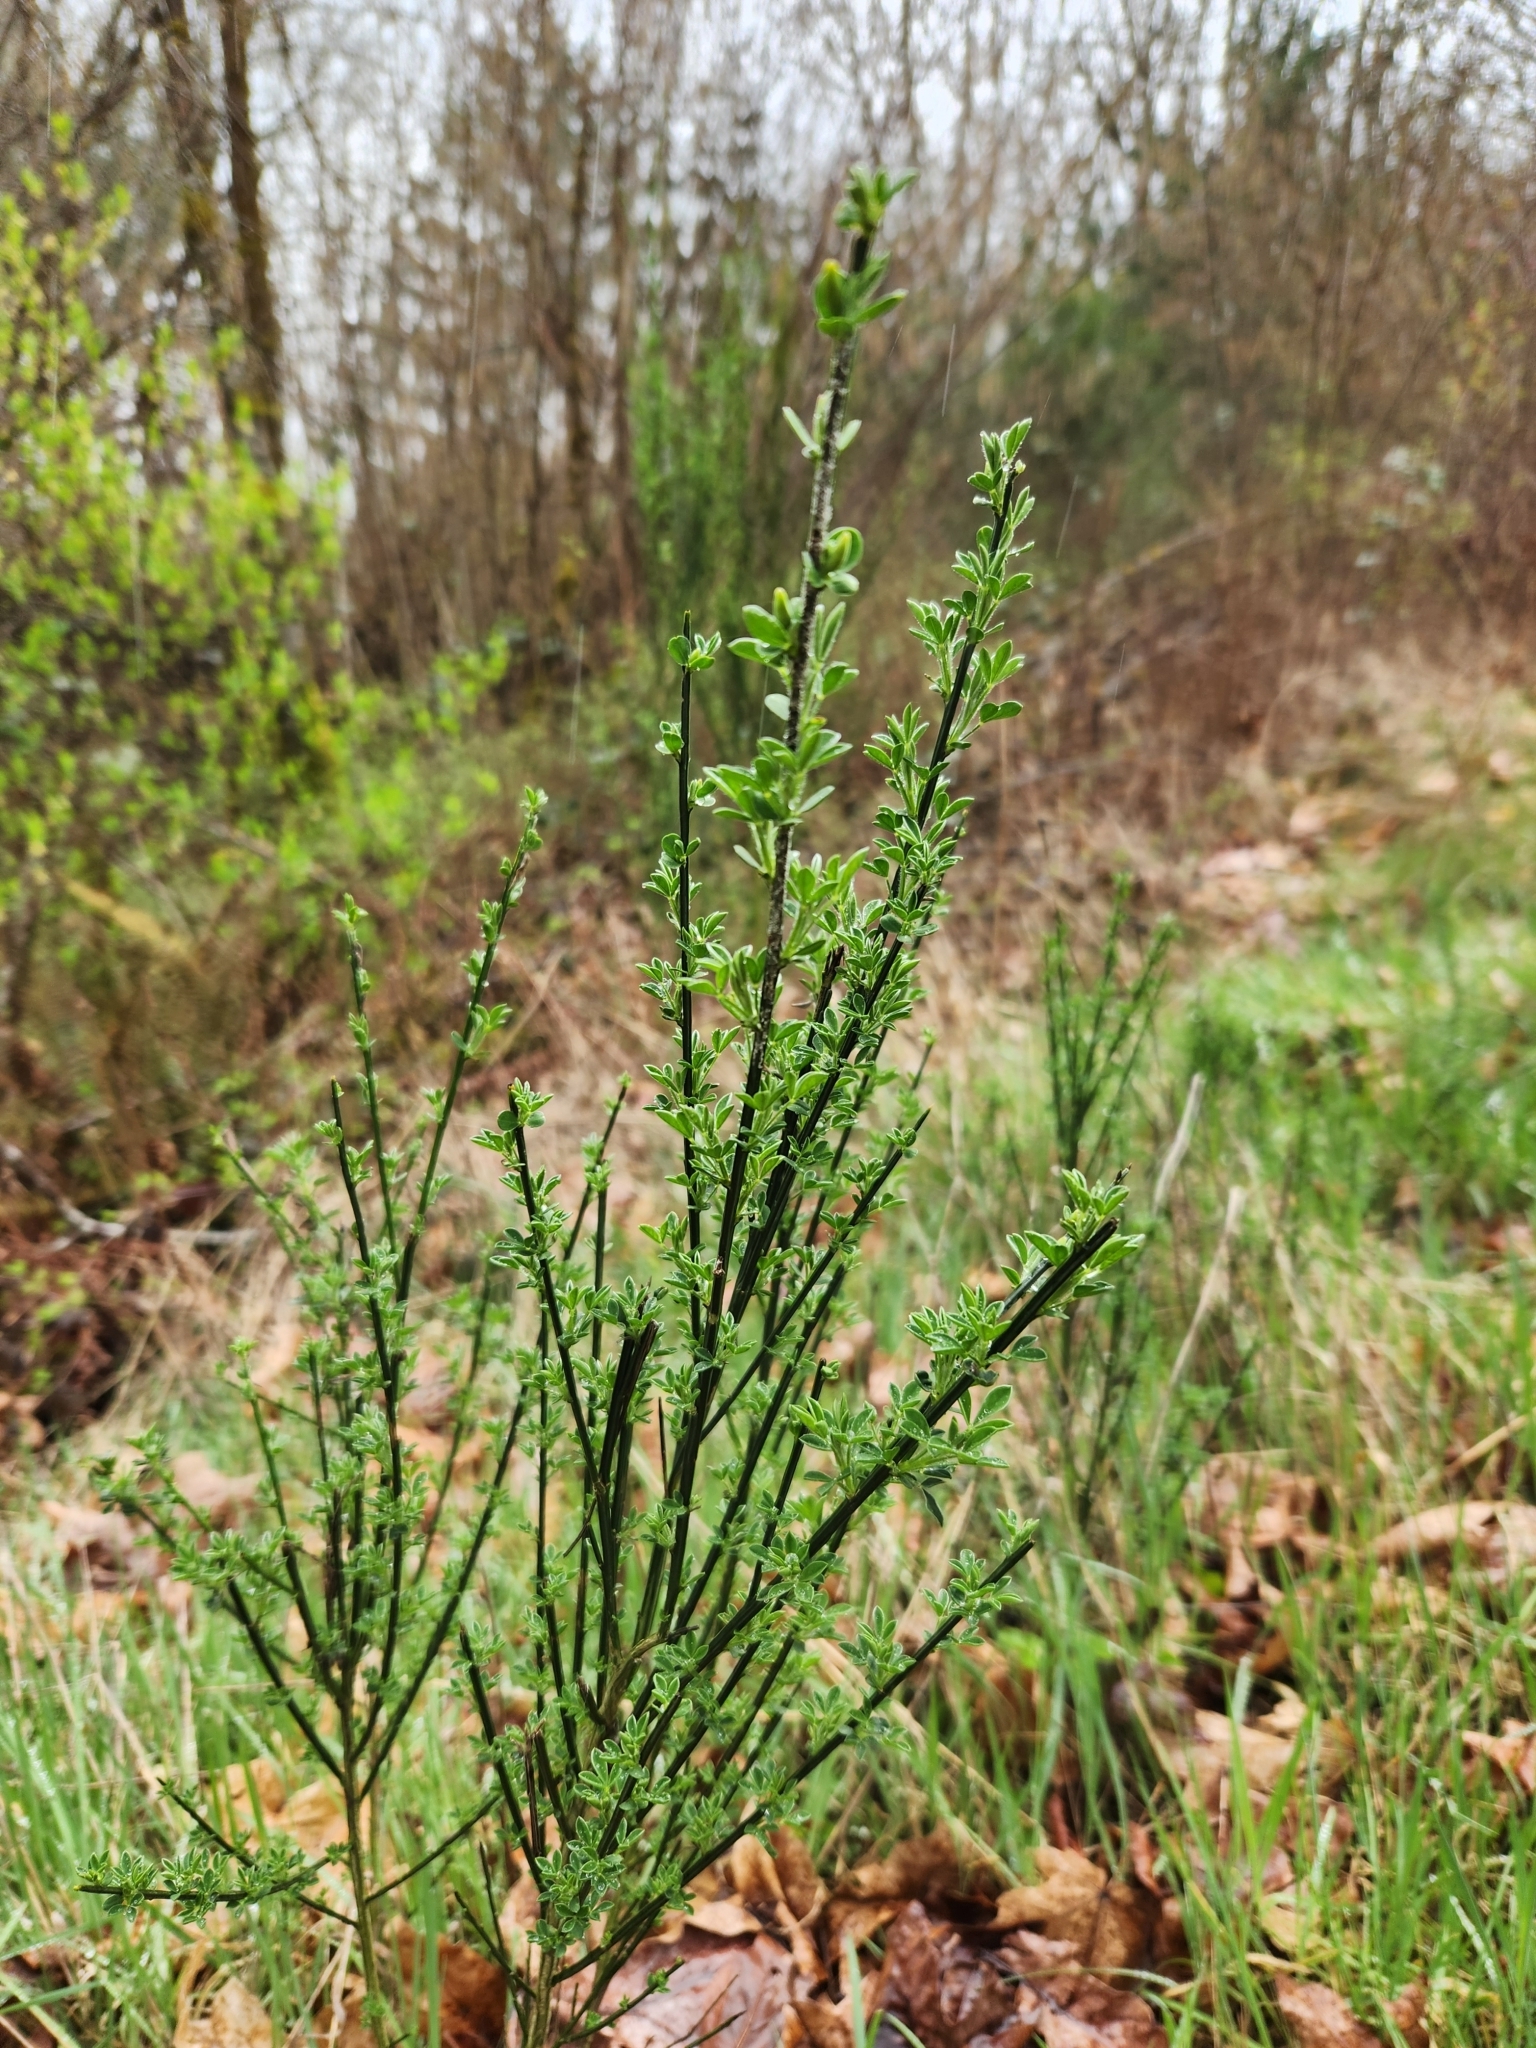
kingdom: Plantae
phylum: Tracheophyta
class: Magnoliopsida
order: Fabales
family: Fabaceae
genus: Cytisus
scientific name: Cytisus scoparius
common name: Scotch broom
